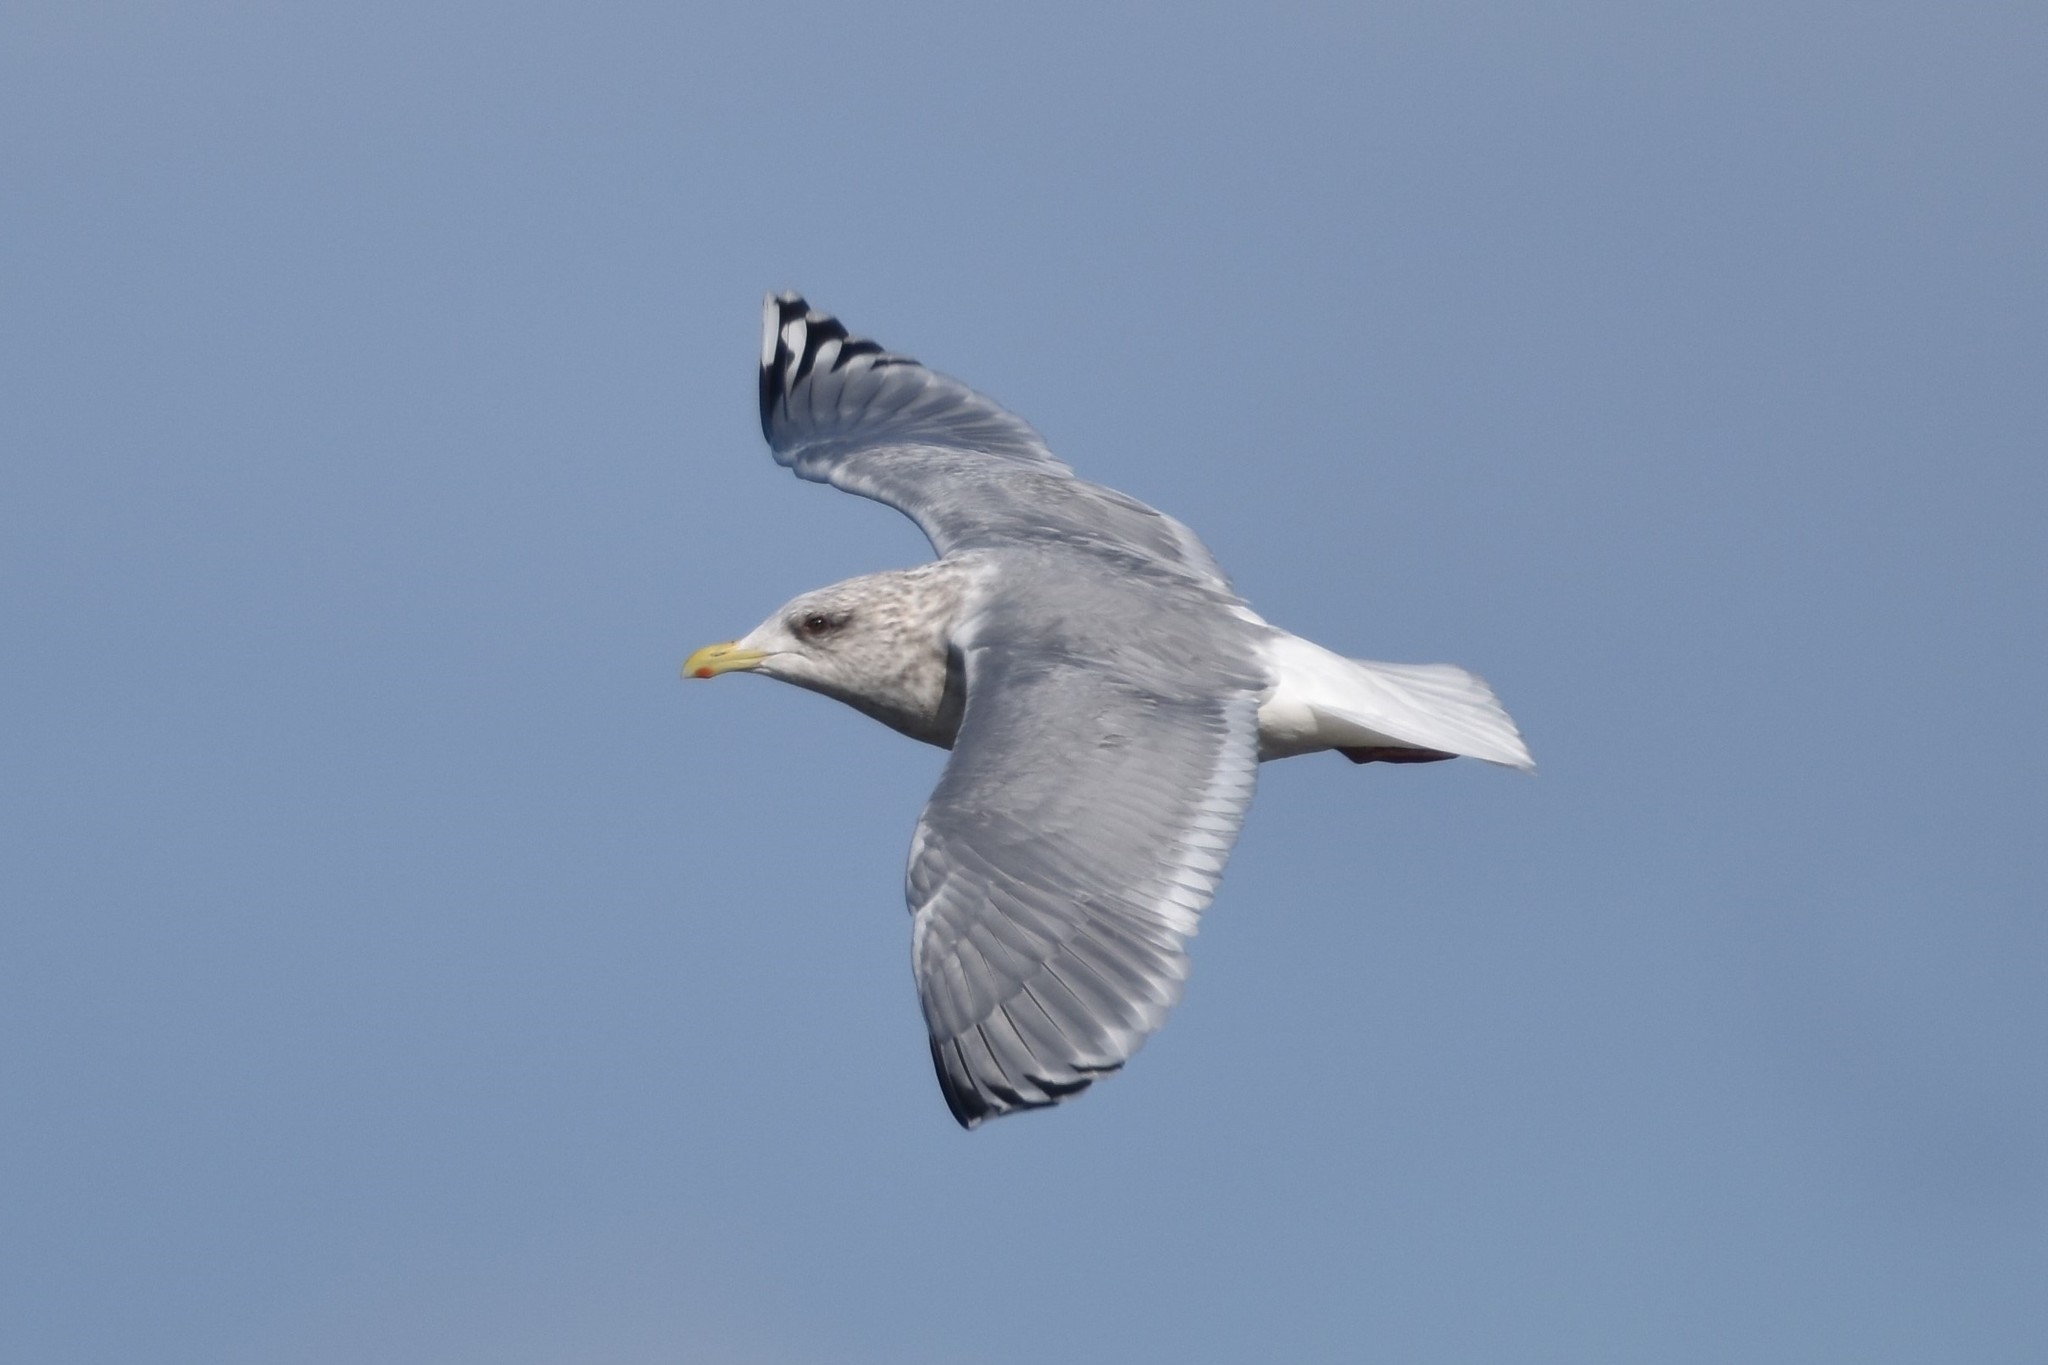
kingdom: Animalia
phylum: Chordata
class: Aves
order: Charadriiformes
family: Laridae
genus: Larus
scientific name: Larus glaucoides
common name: Iceland gull
